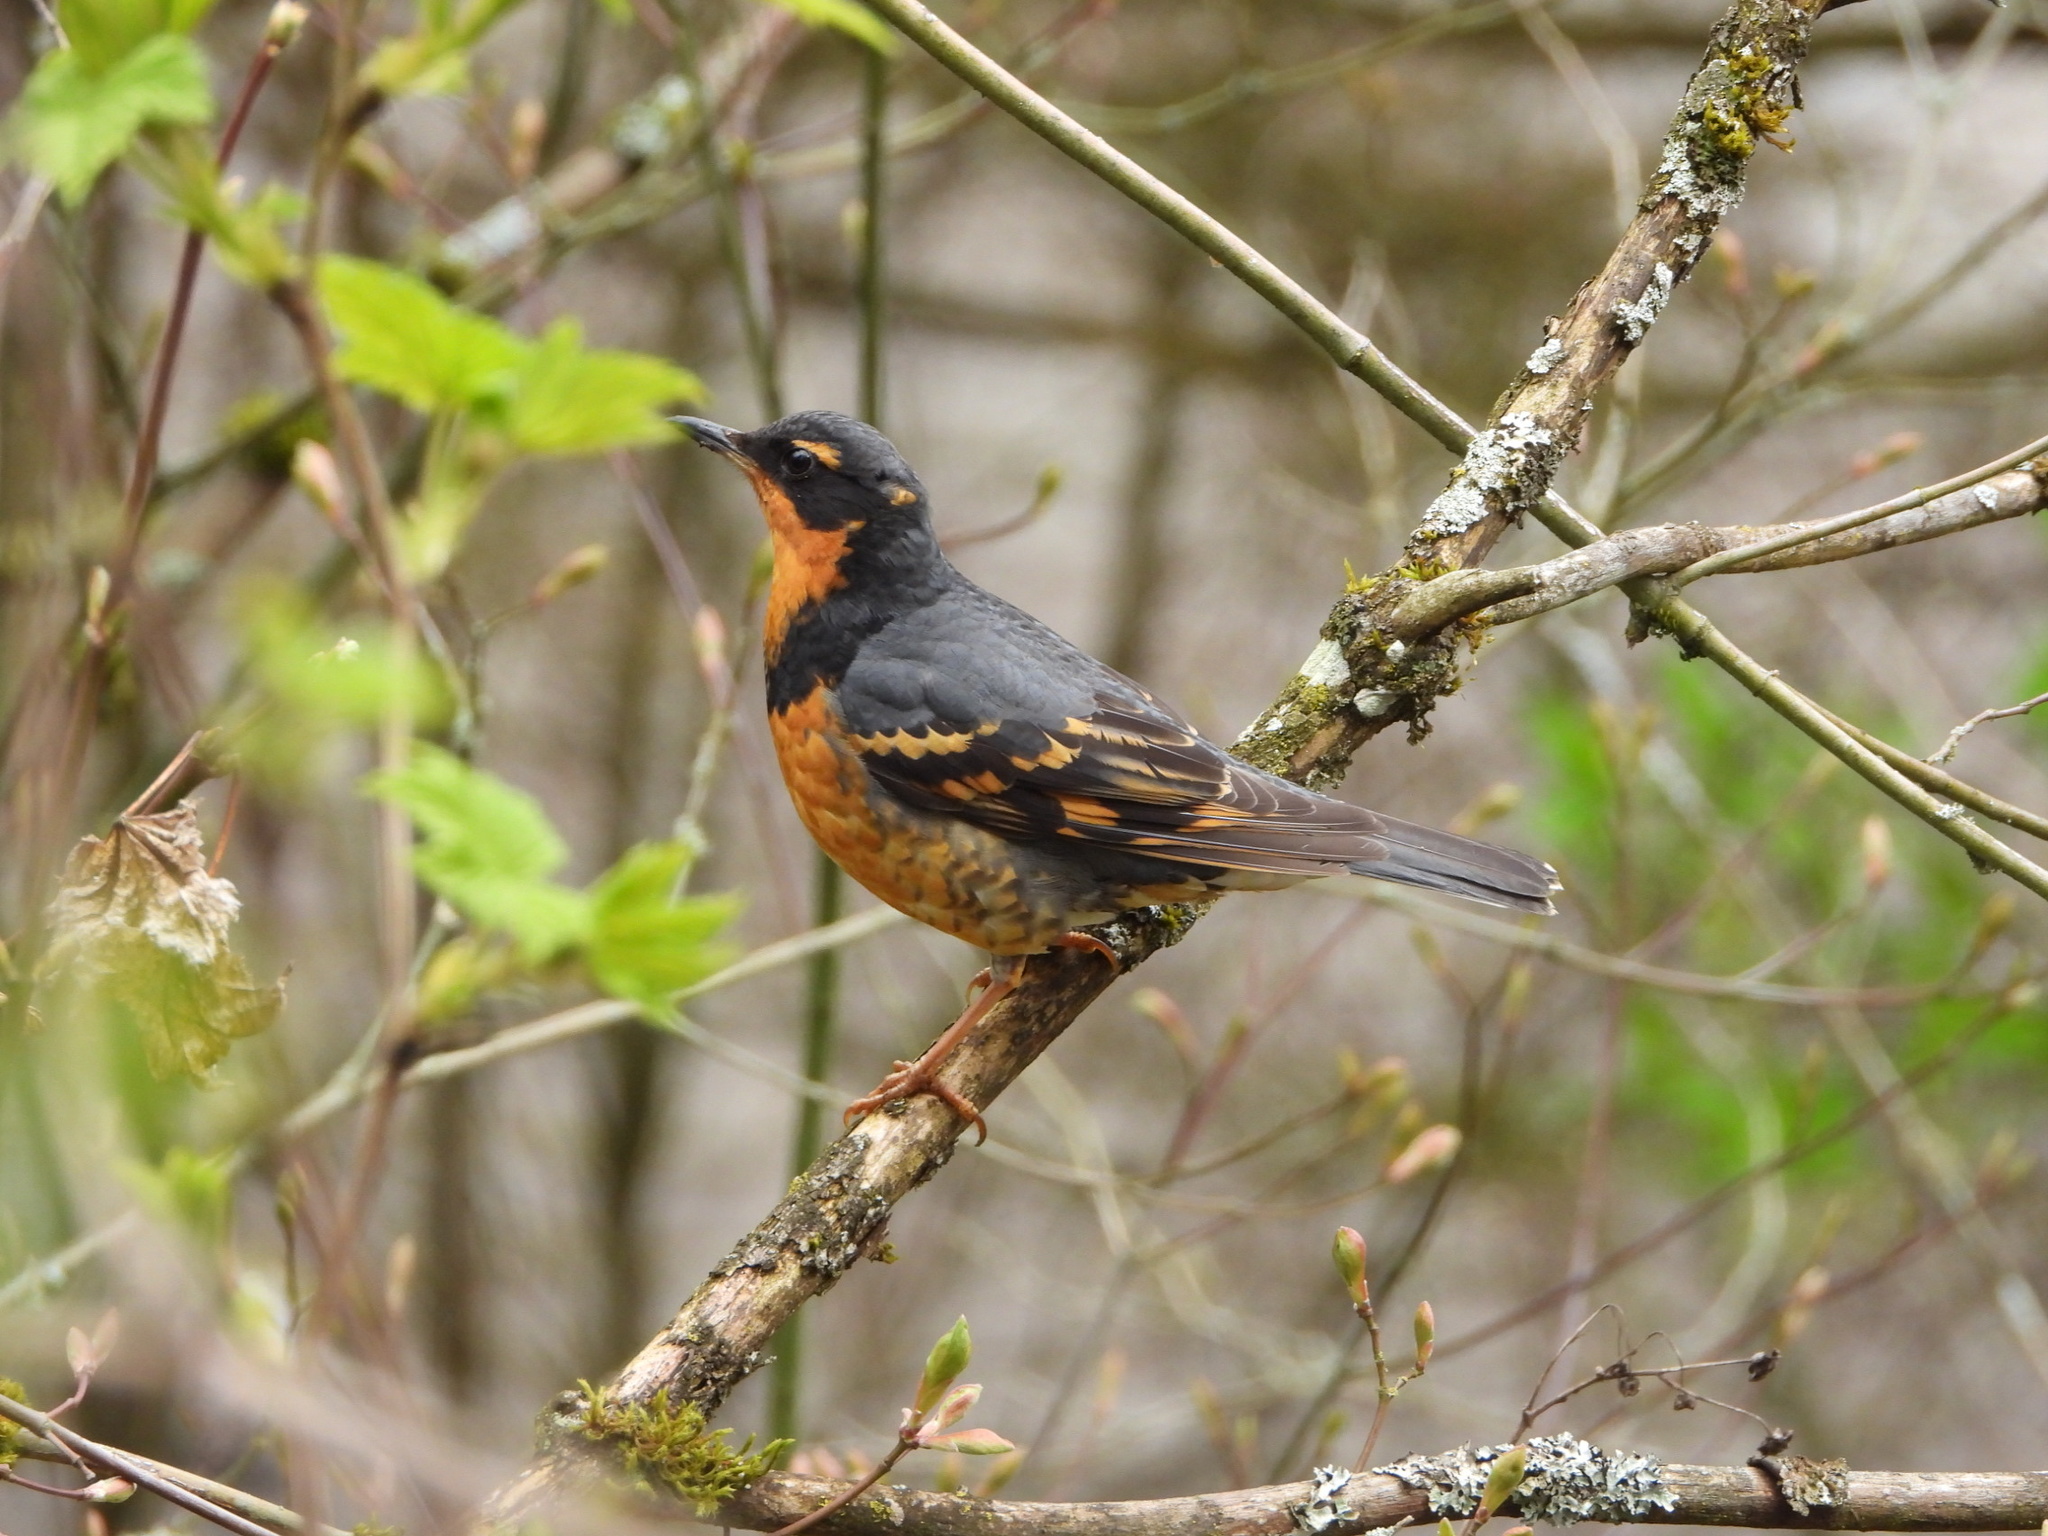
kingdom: Animalia
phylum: Chordata
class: Aves
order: Passeriformes
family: Turdidae
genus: Ixoreus
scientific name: Ixoreus naevius
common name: Varied thrush
